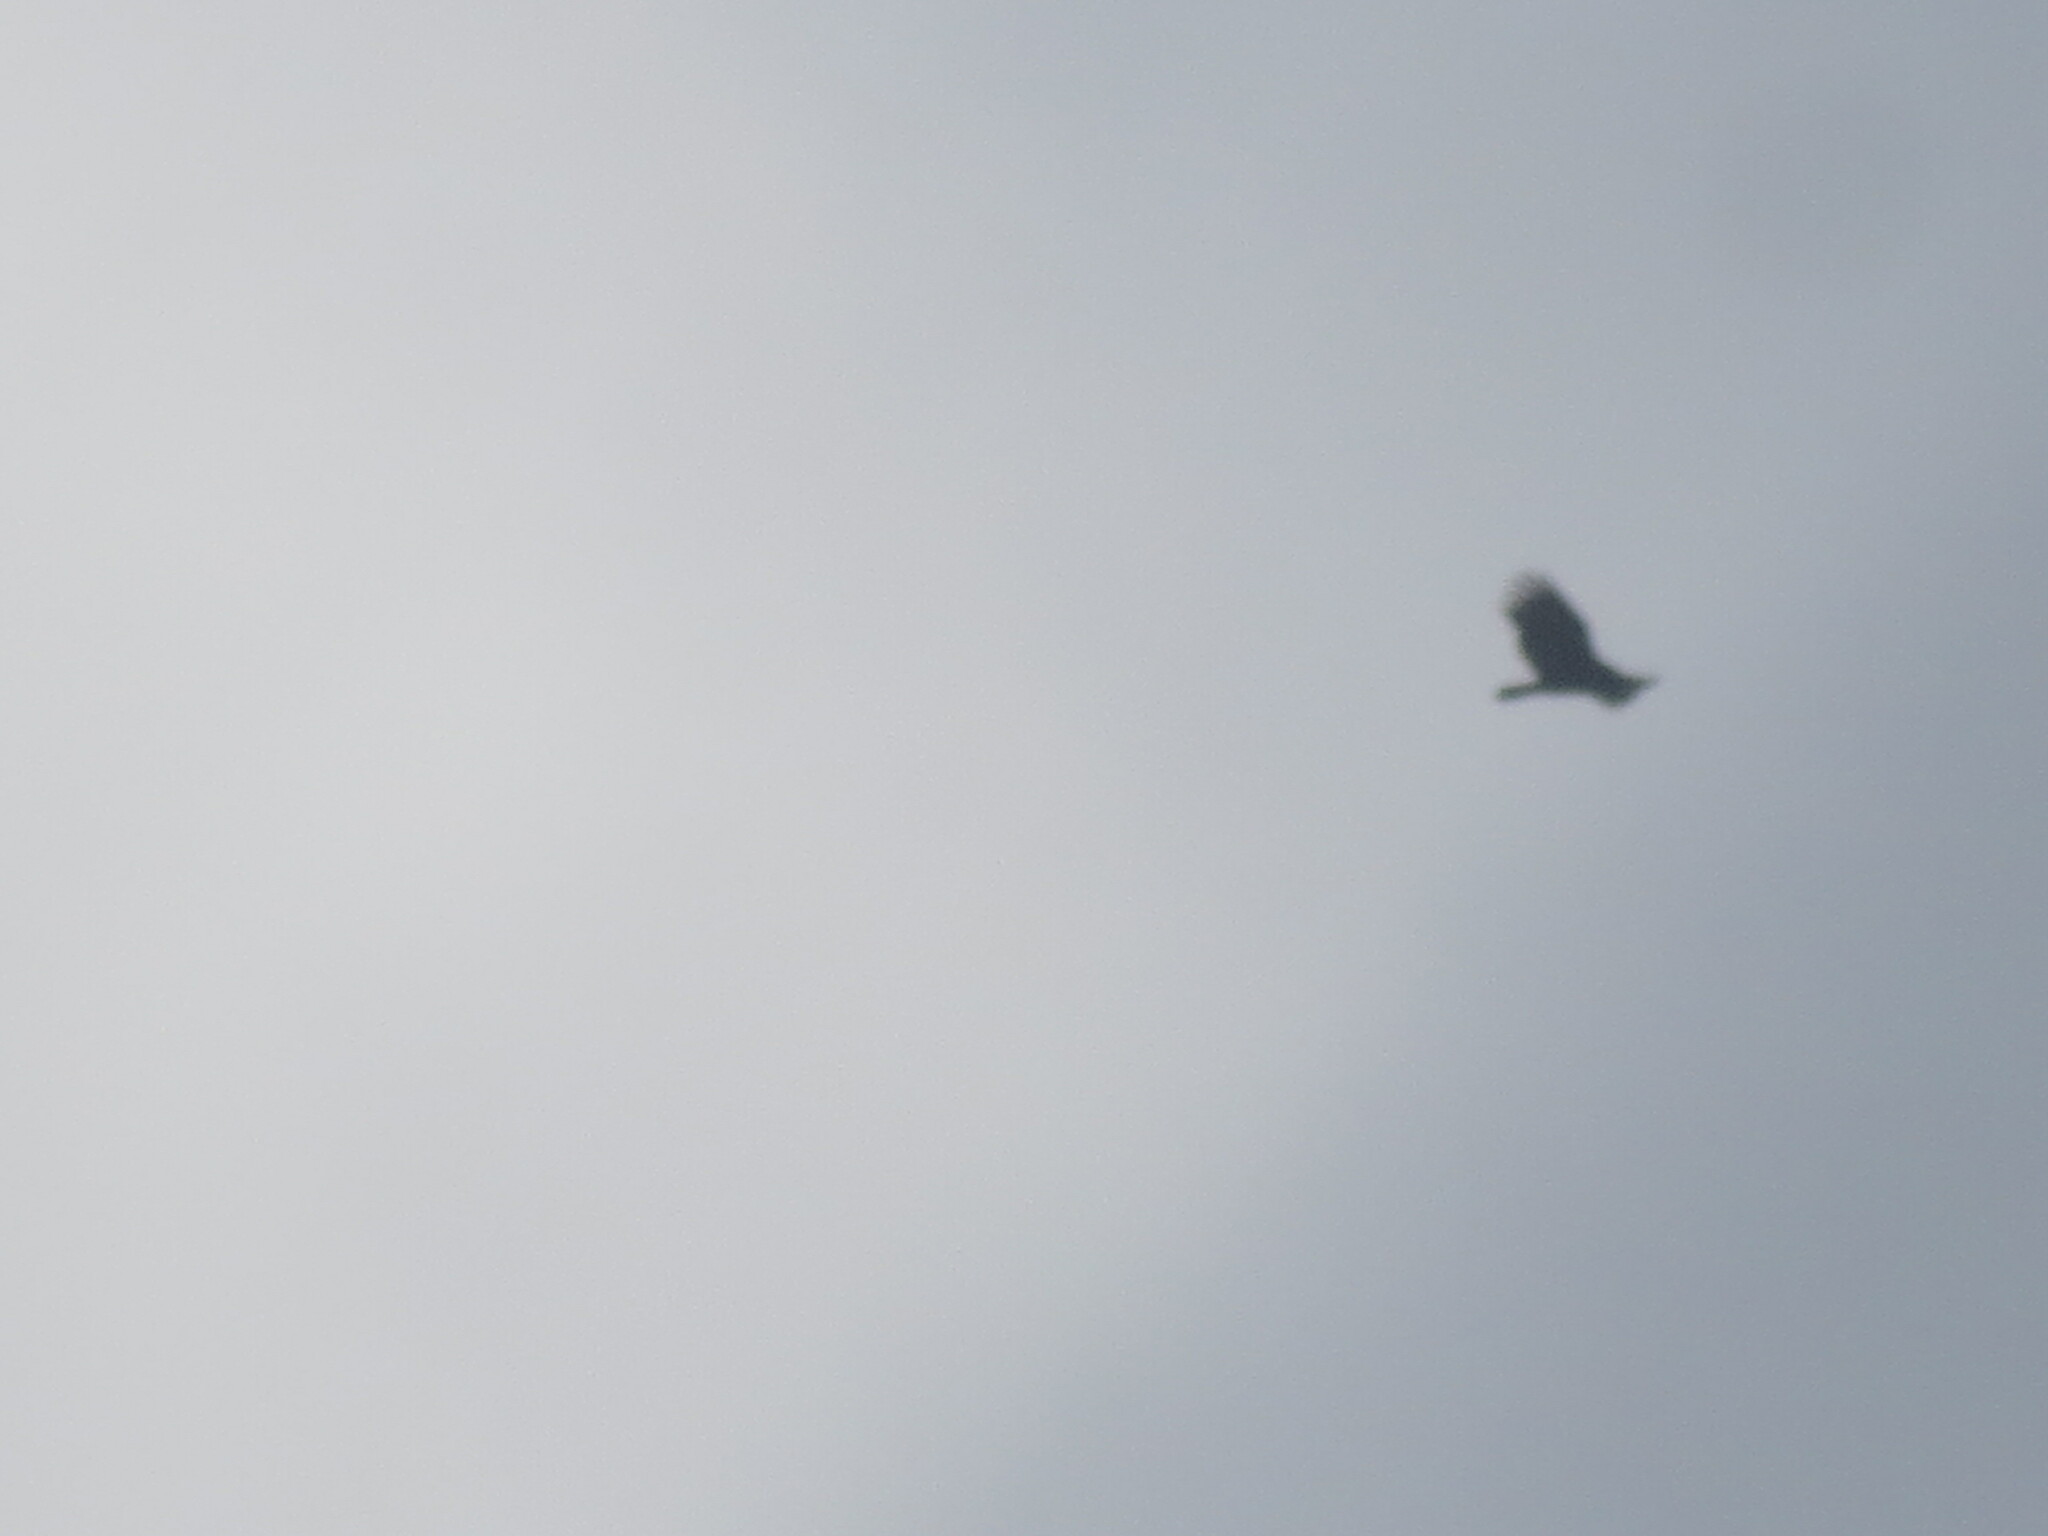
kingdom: Animalia
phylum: Chordata
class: Aves
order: Accipitriformes
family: Cathartidae
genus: Cathartes
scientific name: Cathartes aura
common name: Turkey vulture
